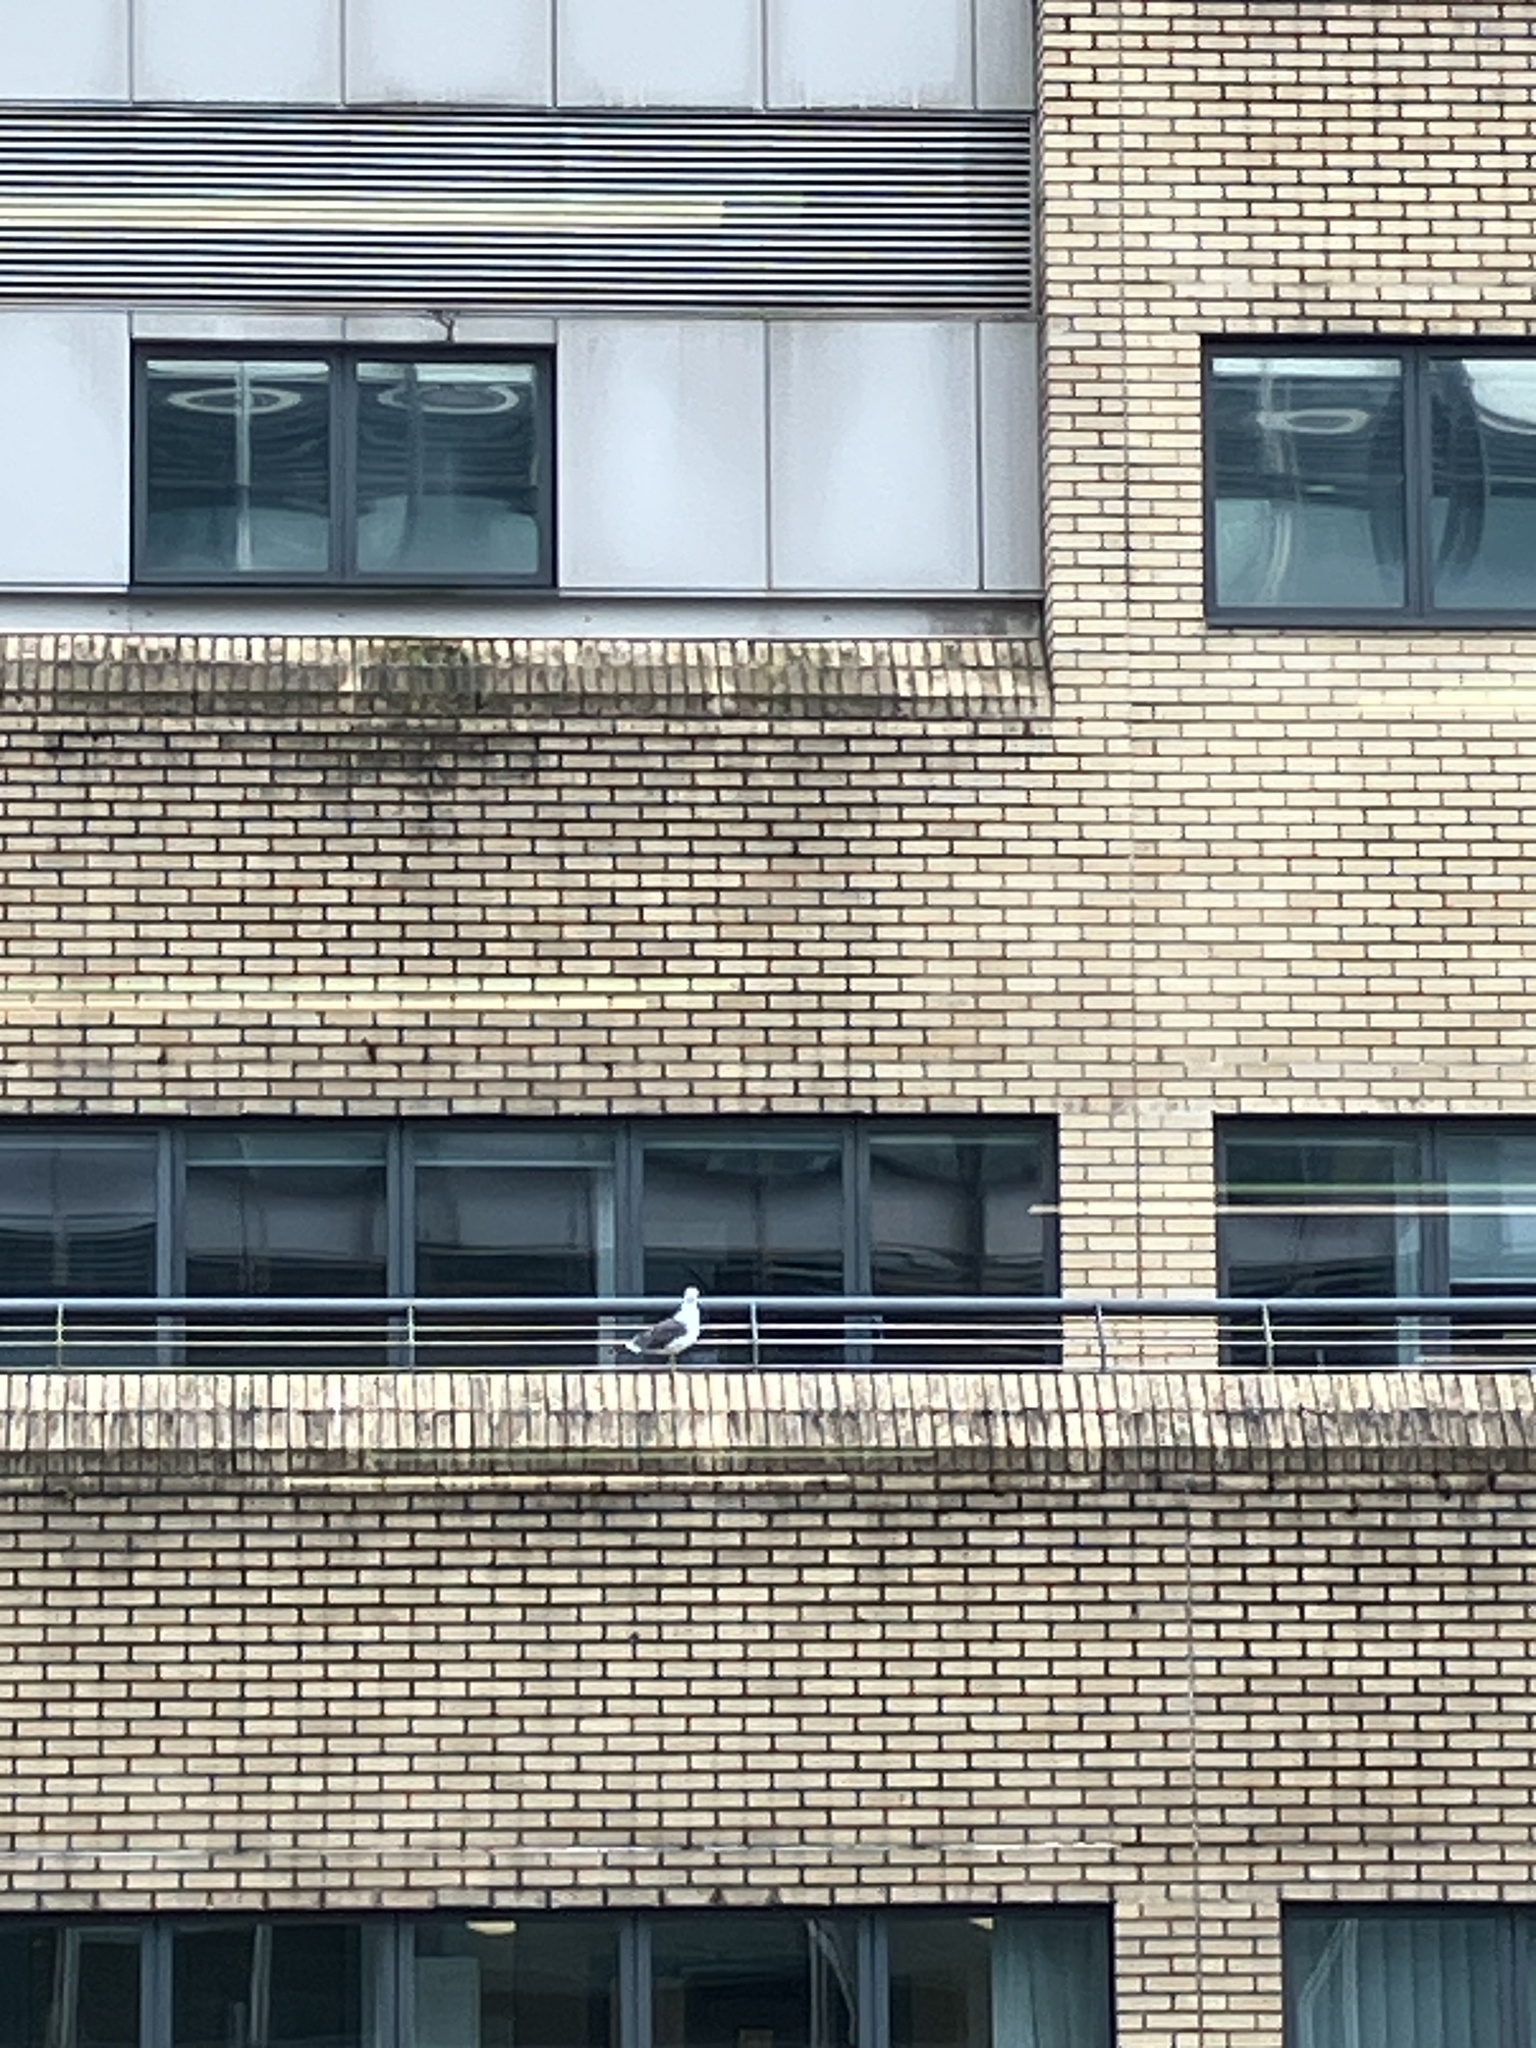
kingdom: Animalia
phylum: Chordata
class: Aves
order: Charadriiformes
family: Laridae
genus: Larus
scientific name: Larus fuscus
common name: Lesser black-backed gull
